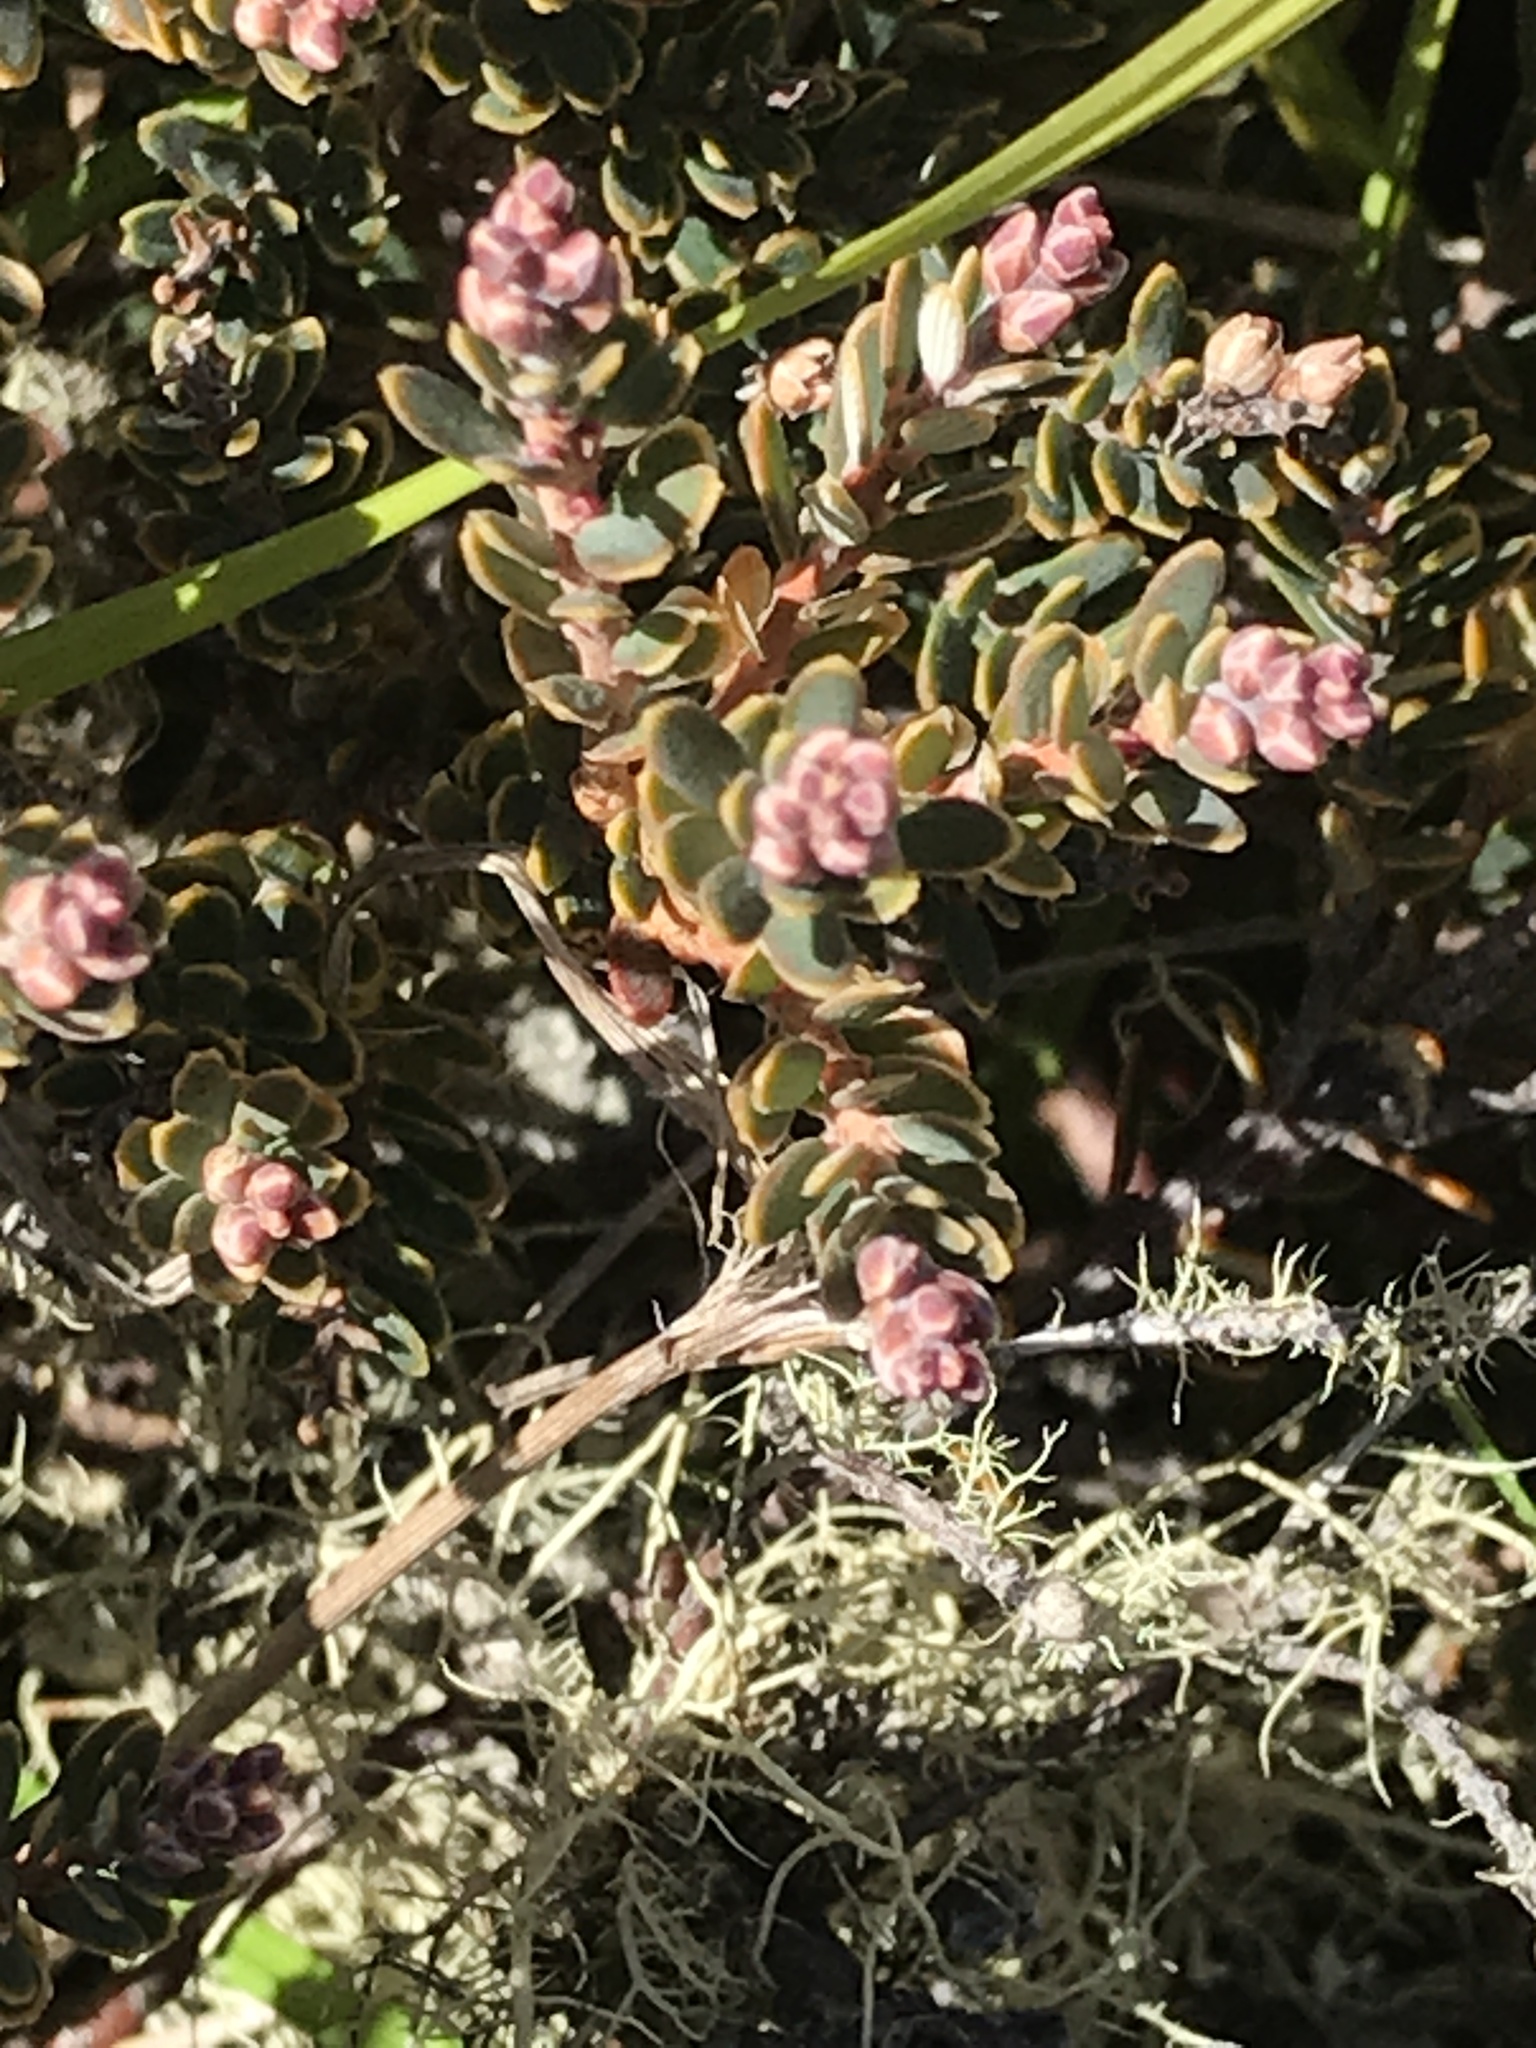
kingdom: Plantae
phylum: Tracheophyta
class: Magnoliopsida
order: Ericales
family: Ericaceae
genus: Acrothamnus
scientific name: Acrothamnus colensoi
